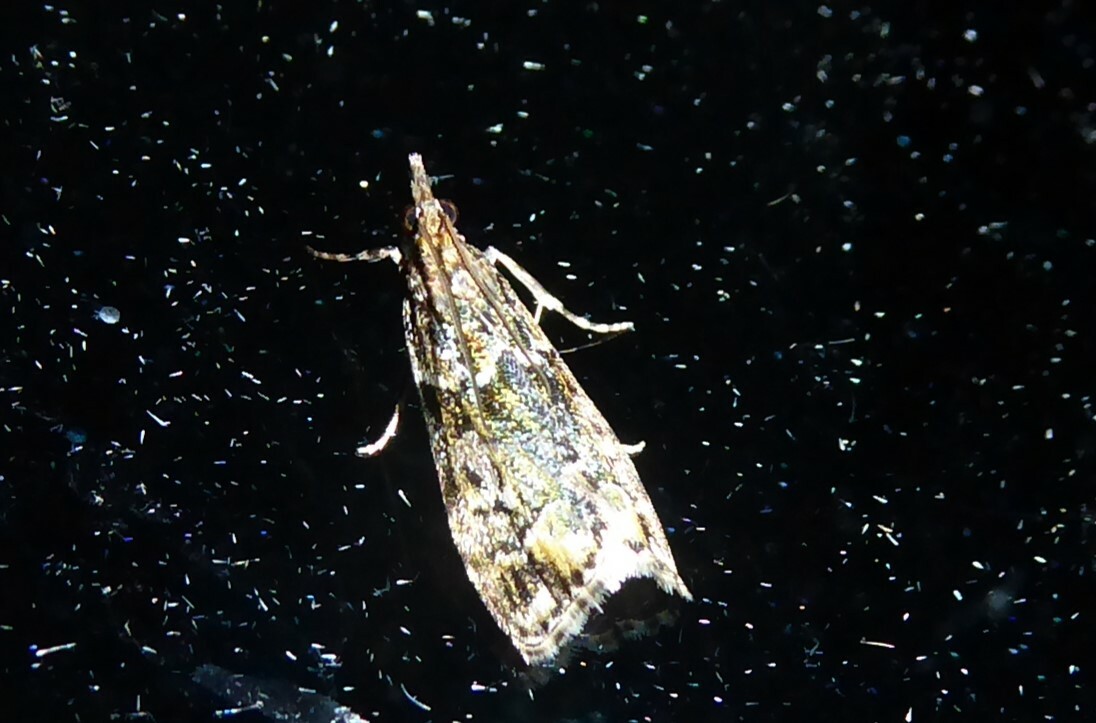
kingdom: Animalia
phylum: Arthropoda
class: Insecta
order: Lepidoptera
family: Crambidae
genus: Eudonia
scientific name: Eudonia minualis
